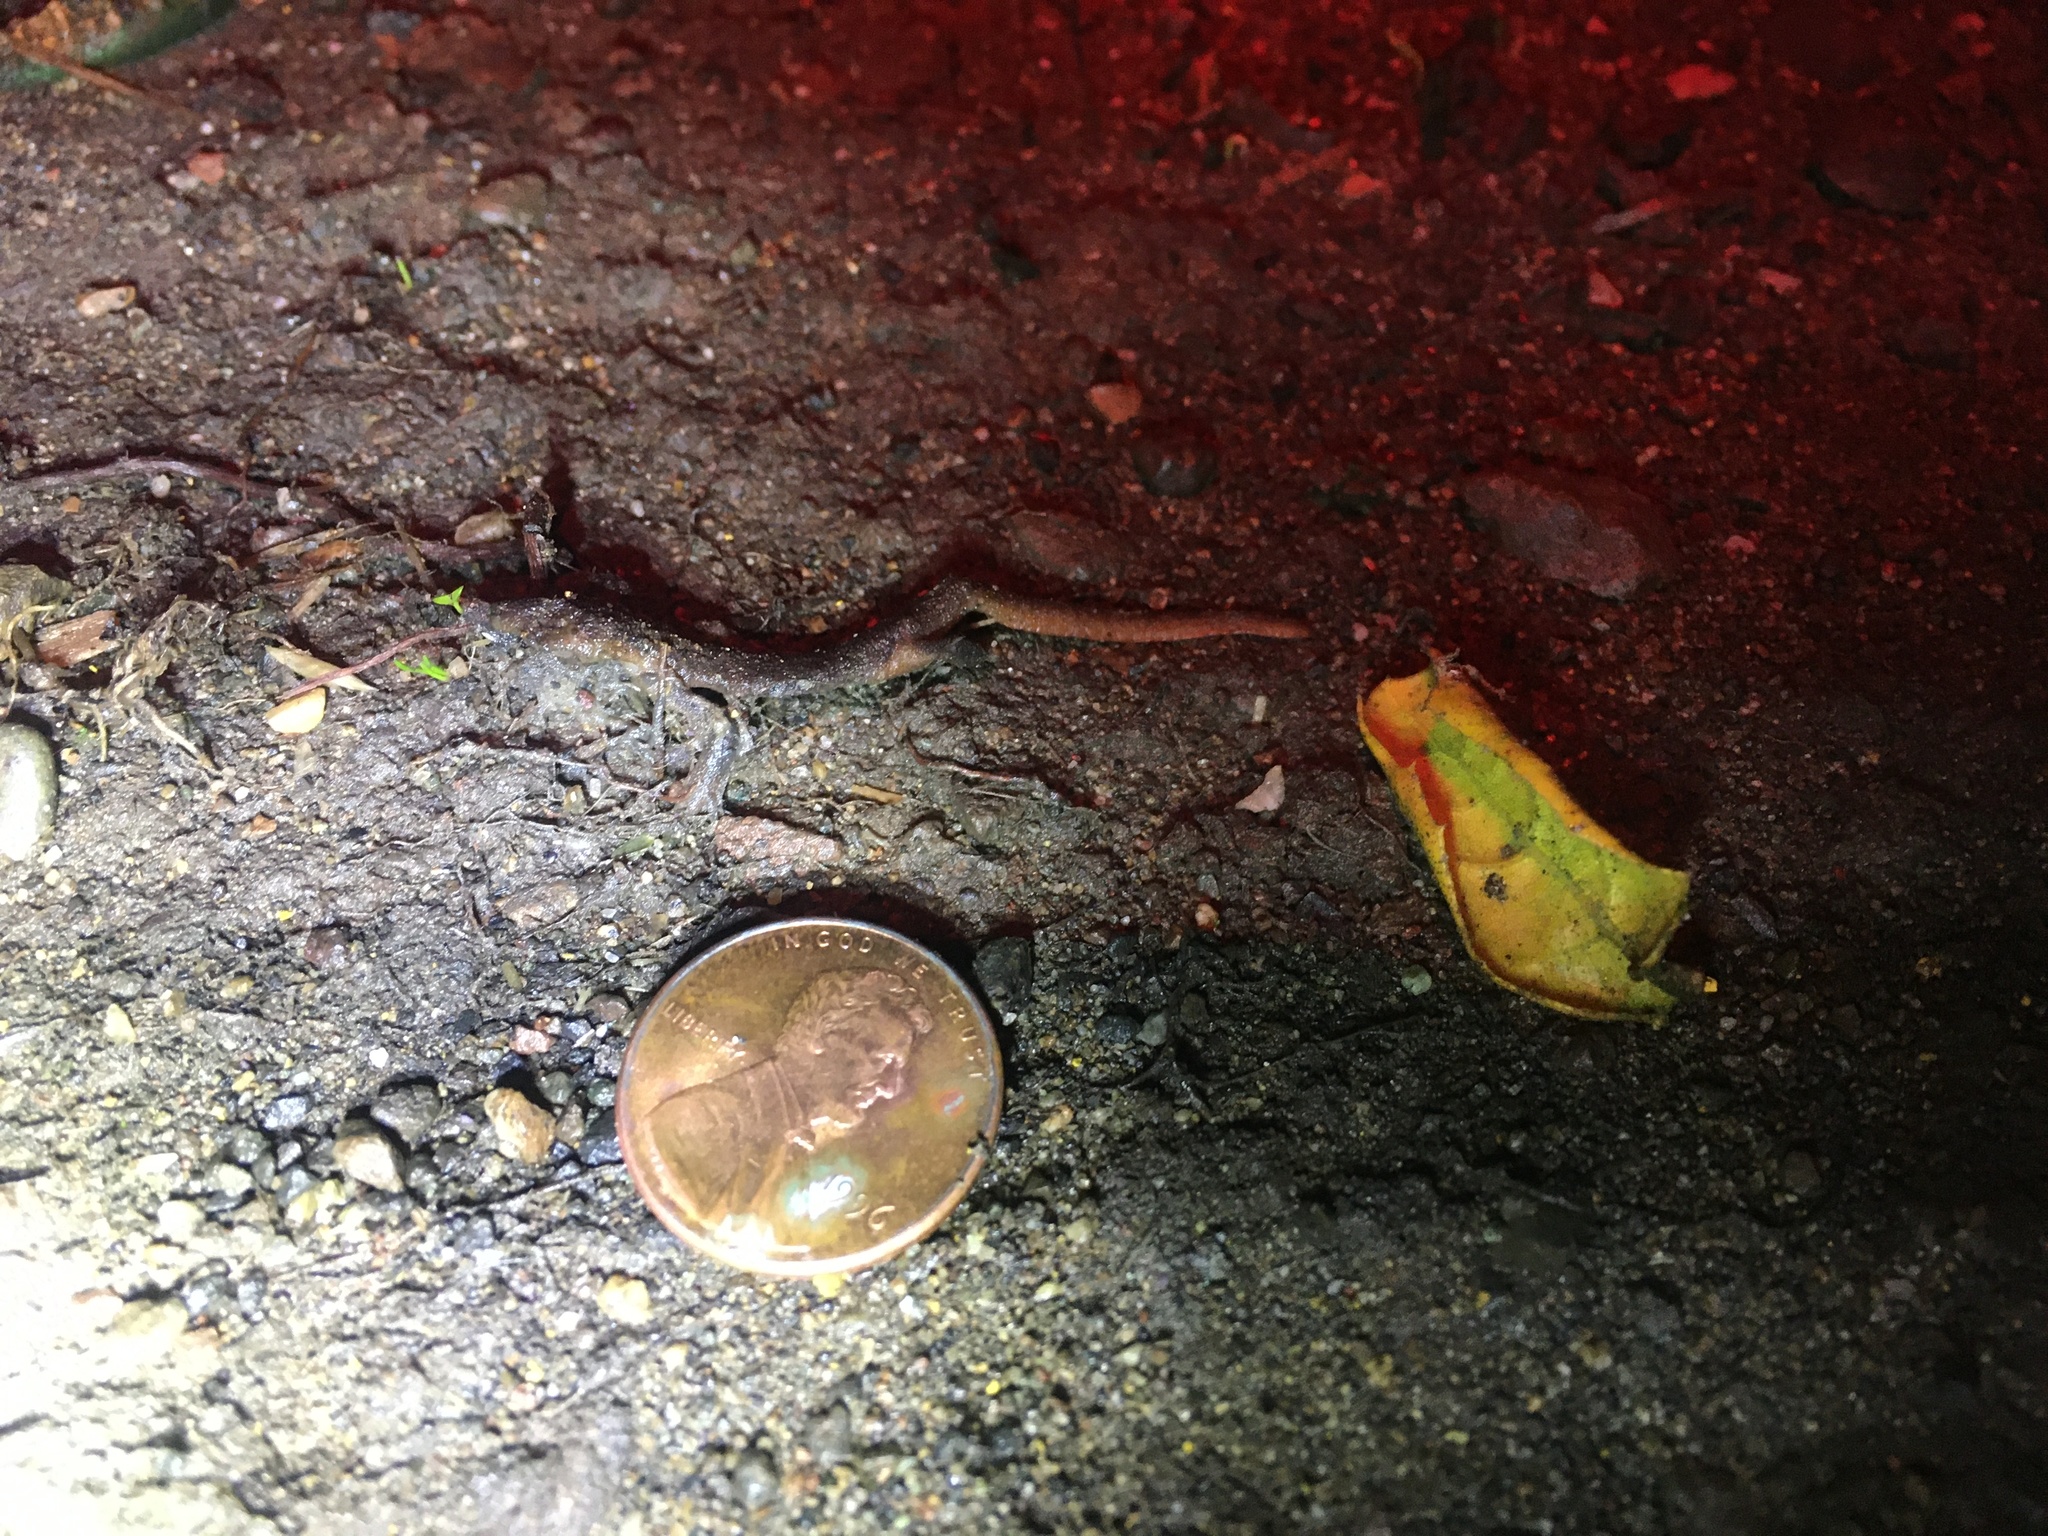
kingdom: Animalia
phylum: Chordata
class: Amphibia
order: Caudata
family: Salamandridae
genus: Taricha
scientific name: Taricha
